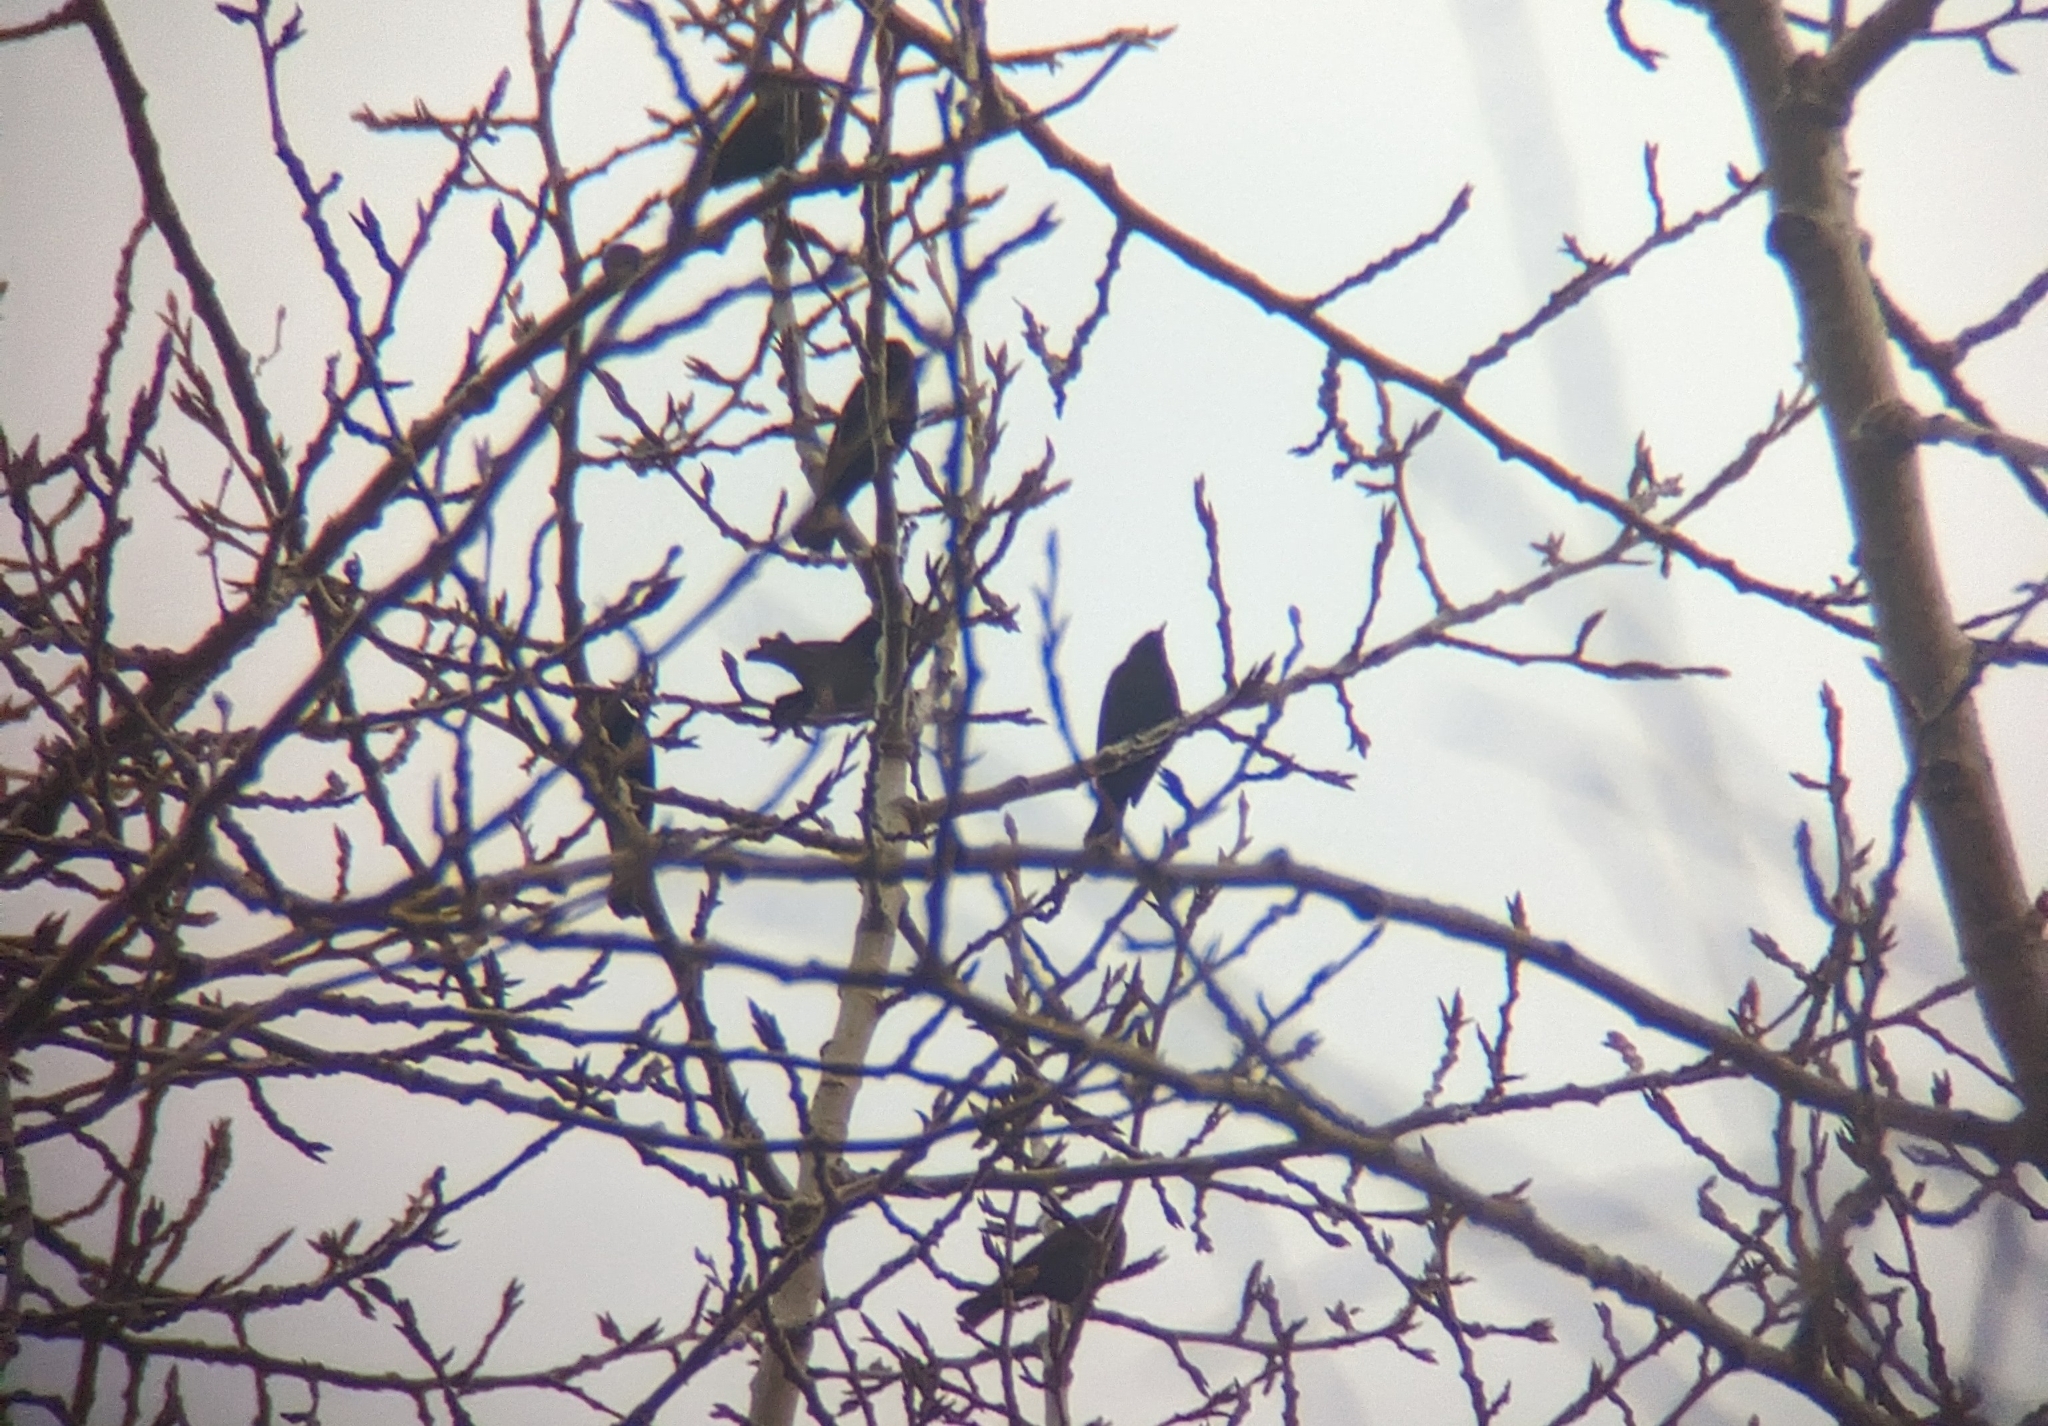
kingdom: Animalia
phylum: Chordata
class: Aves
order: Passeriformes
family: Icteridae
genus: Agelaius
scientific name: Agelaius phoeniceus
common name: Red-winged blackbird
